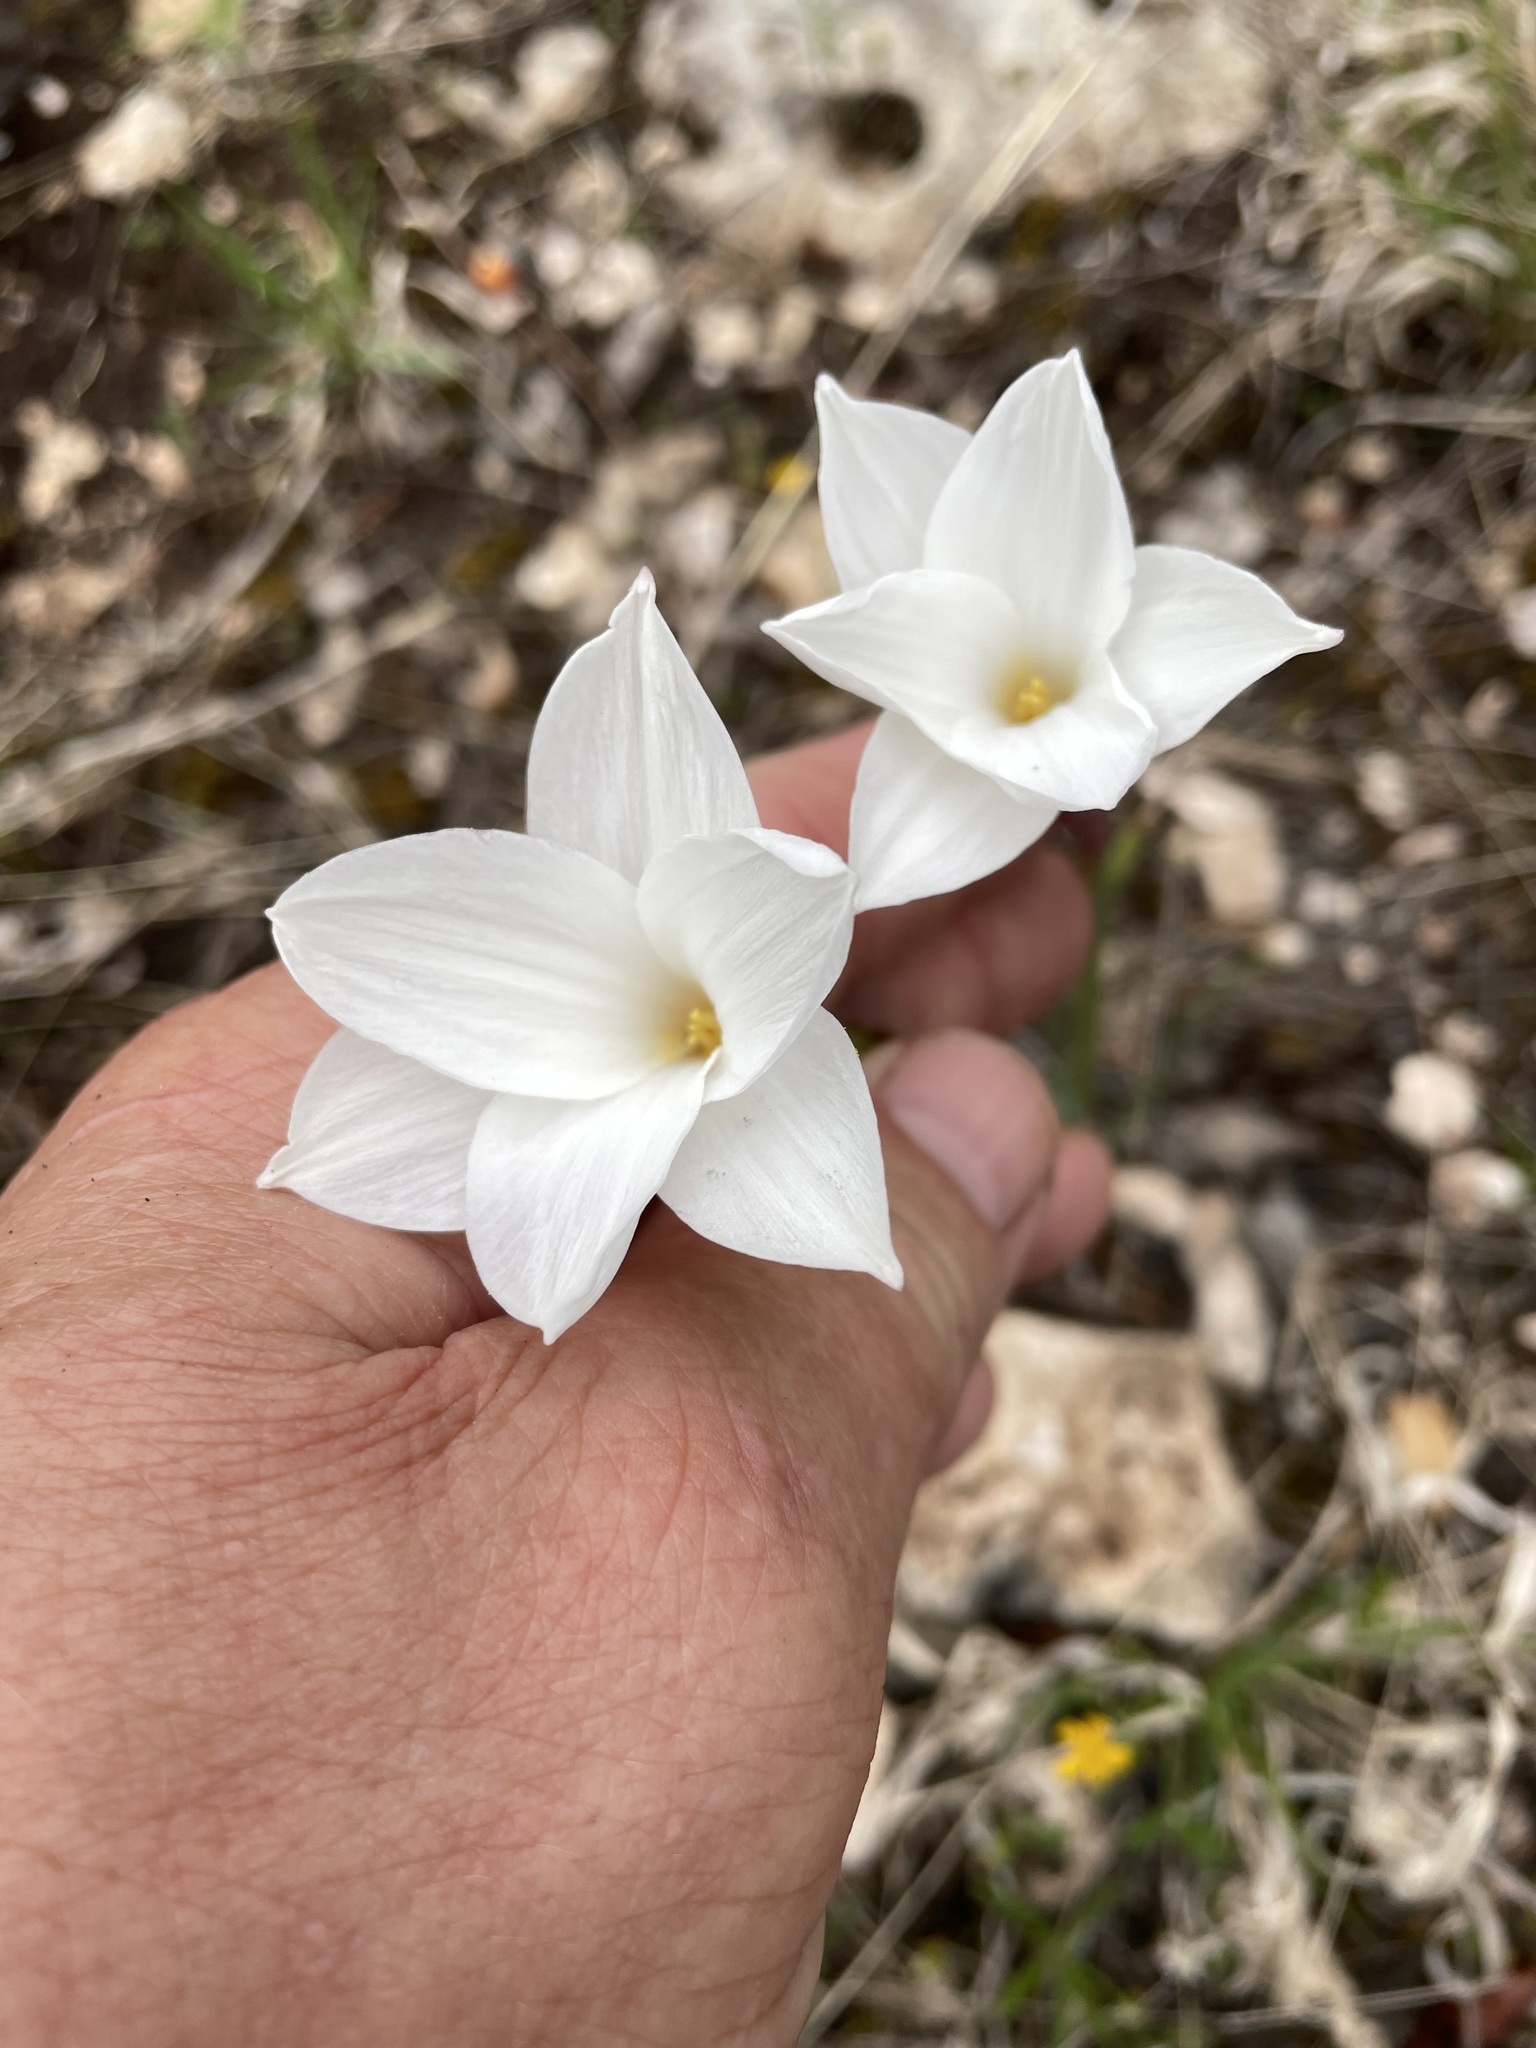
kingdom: Plantae
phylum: Tracheophyta
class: Liliopsida
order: Asparagales
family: Amaryllidaceae
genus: Zephyranthes
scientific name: Zephyranthes drummondii
